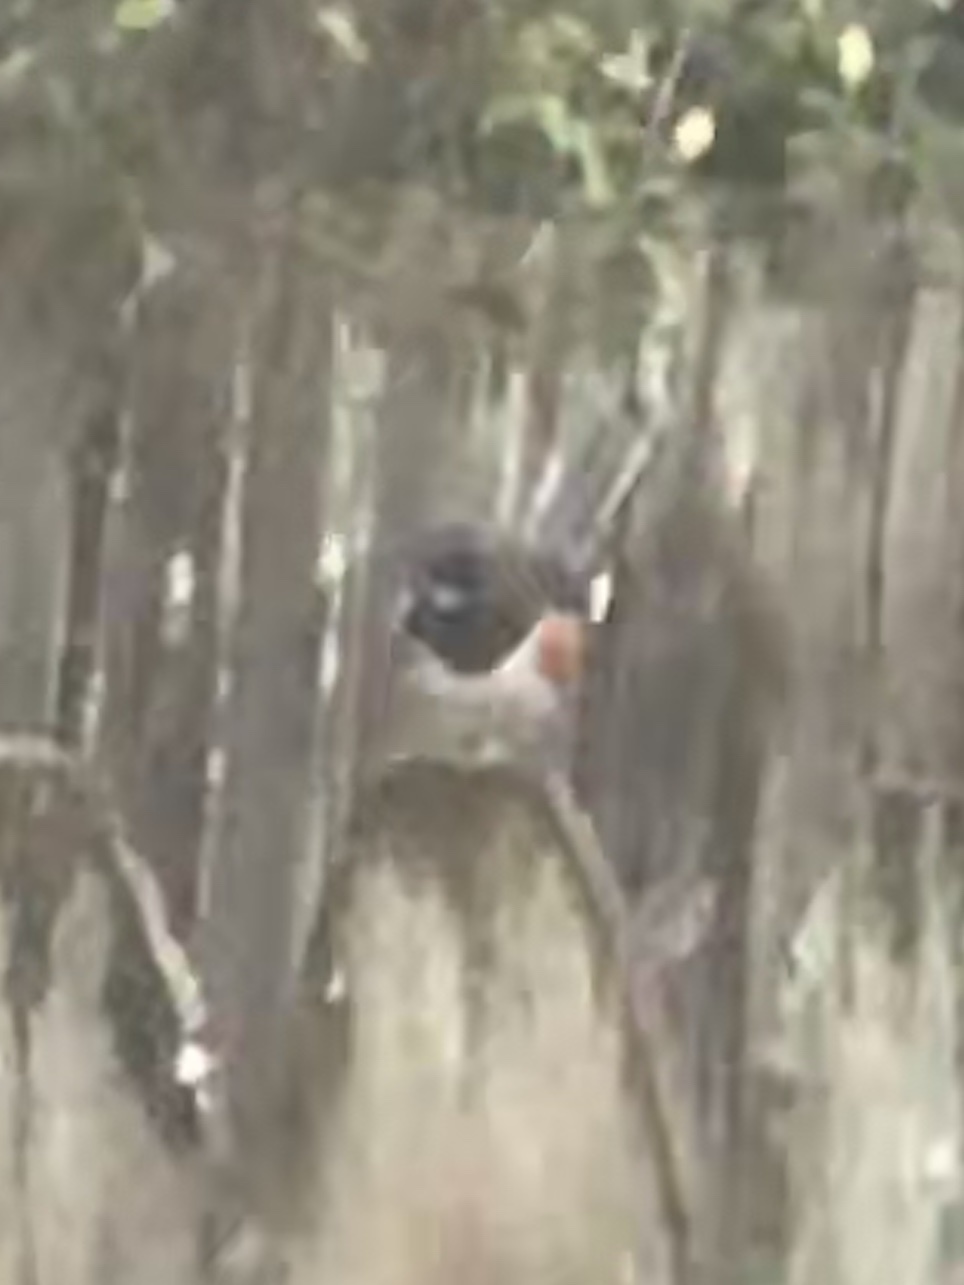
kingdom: Animalia
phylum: Chordata
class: Aves
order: Passeriformes
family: Passerellidae
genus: Pipilo
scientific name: Pipilo erythrophthalmus
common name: Eastern towhee
